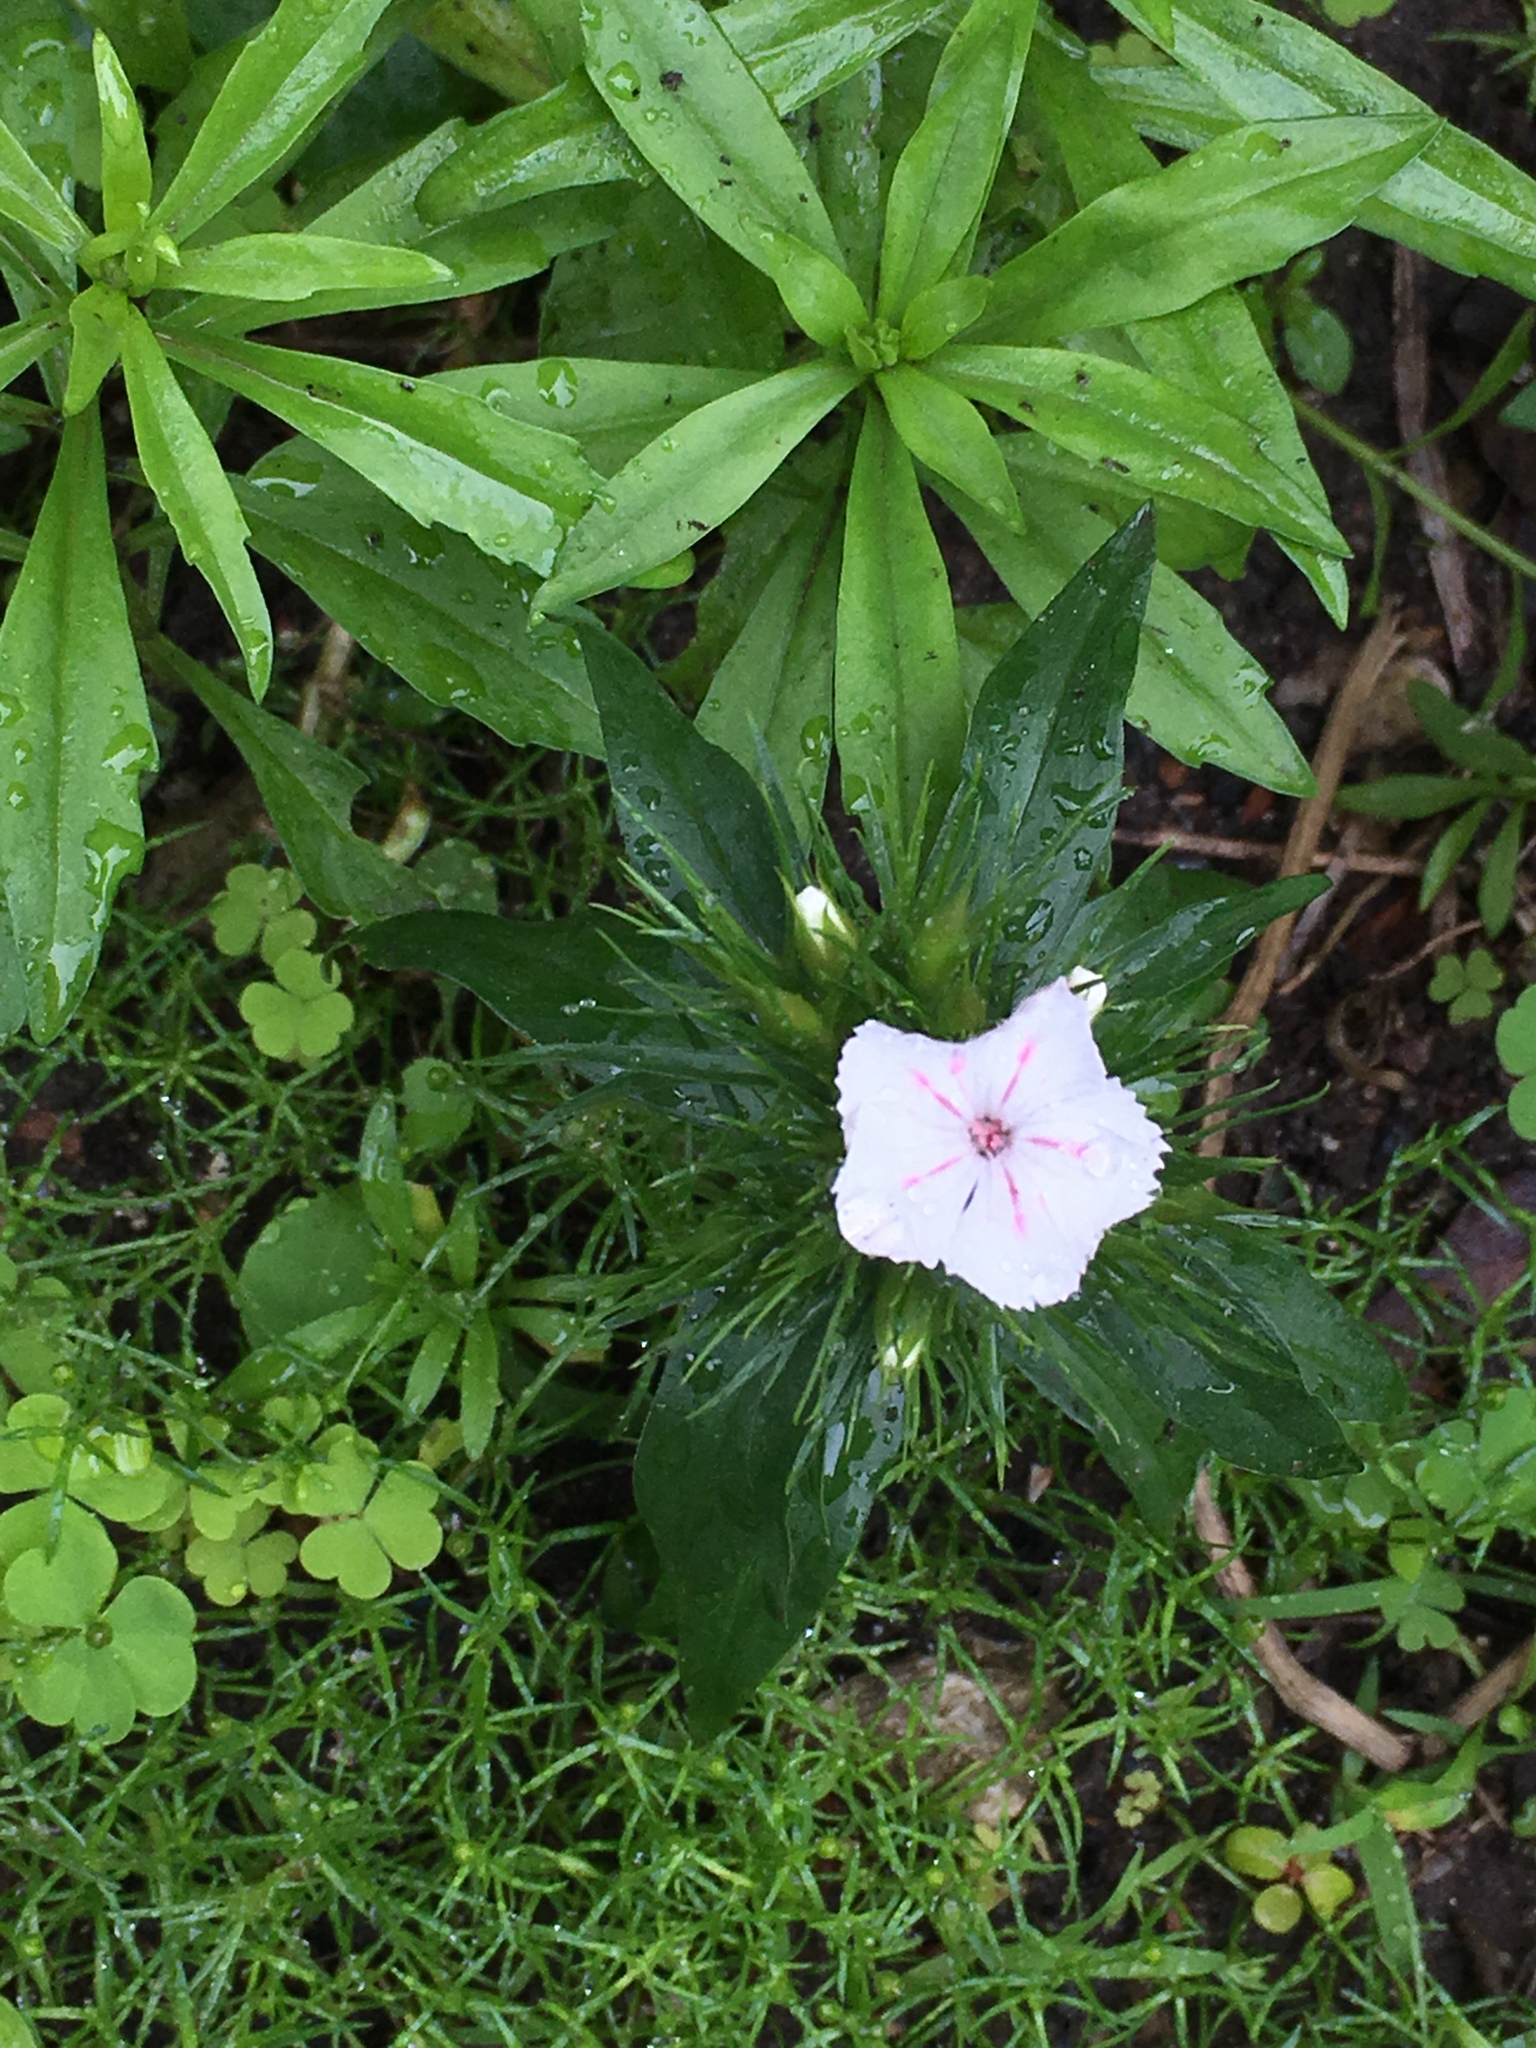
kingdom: Plantae
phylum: Tracheophyta
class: Magnoliopsida
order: Caryophyllales
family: Caryophyllaceae
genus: Dianthus
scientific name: Dianthus barbatus
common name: Sweet-william
